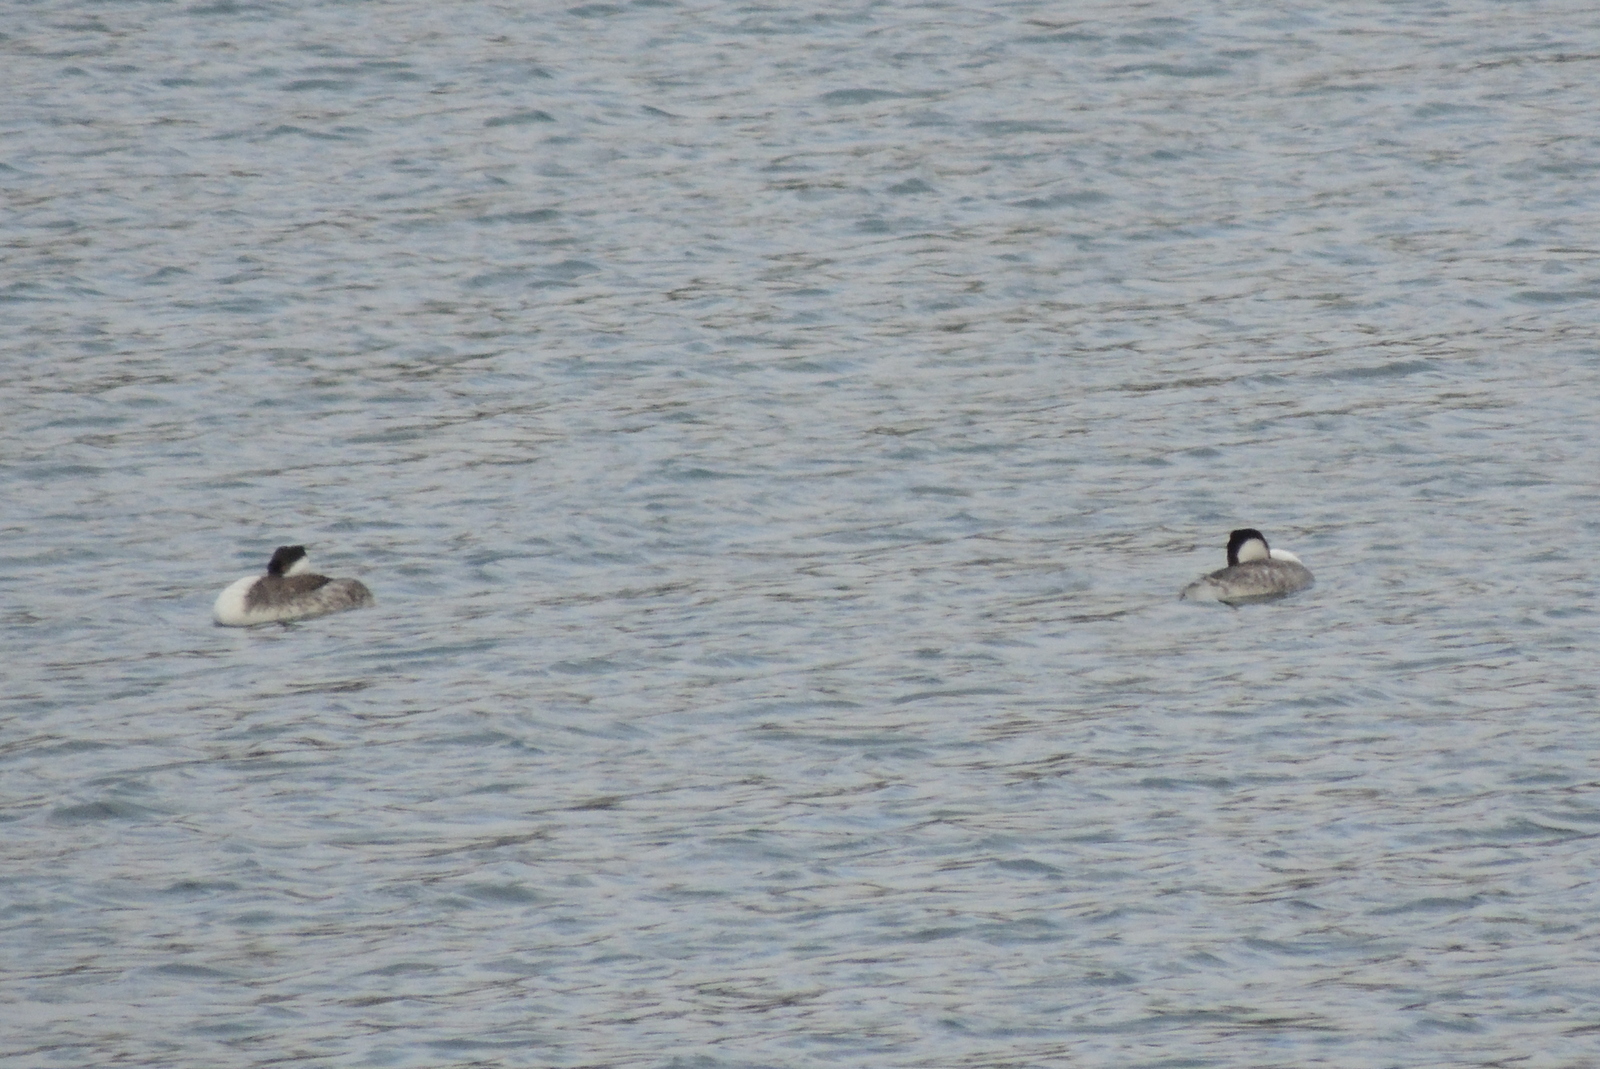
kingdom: Animalia
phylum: Chordata
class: Aves
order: Podicipediformes
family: Podicipedidae
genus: Aechmophorus
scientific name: Aechmophorus occidentalis
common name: Western grebe
